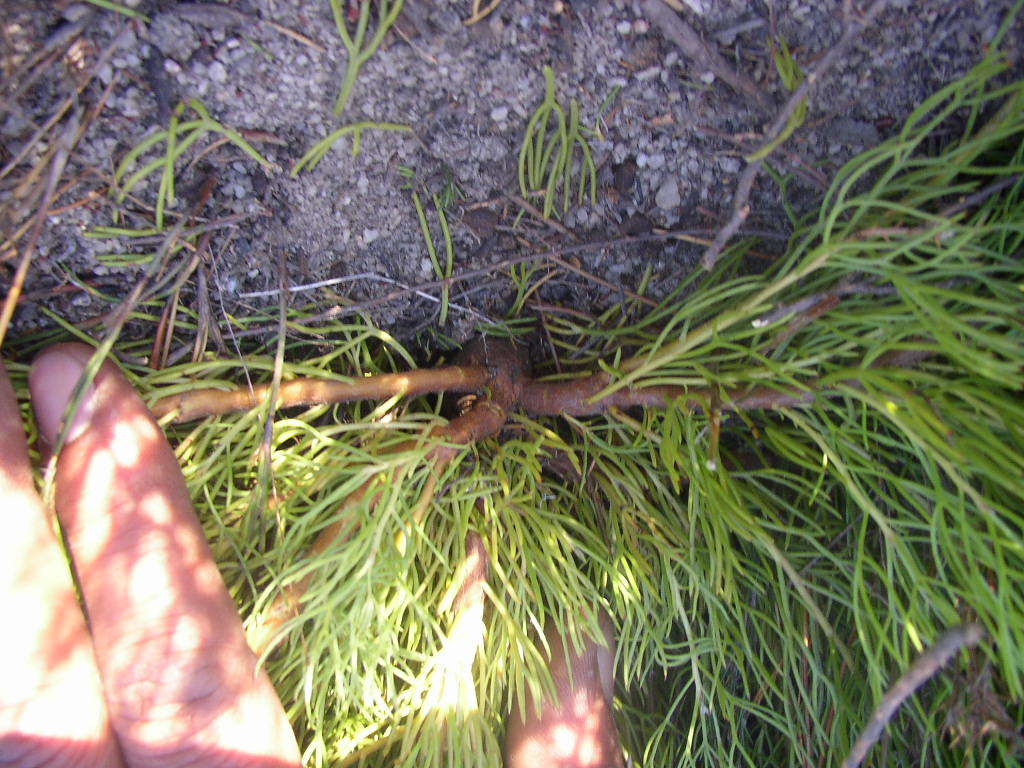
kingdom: Plantae
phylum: Tracheophyta
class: Magnoliopsida
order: Proteales
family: Proteaceae
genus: Serruria
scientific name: Serruria viridifolia
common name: Mat spiderhead
